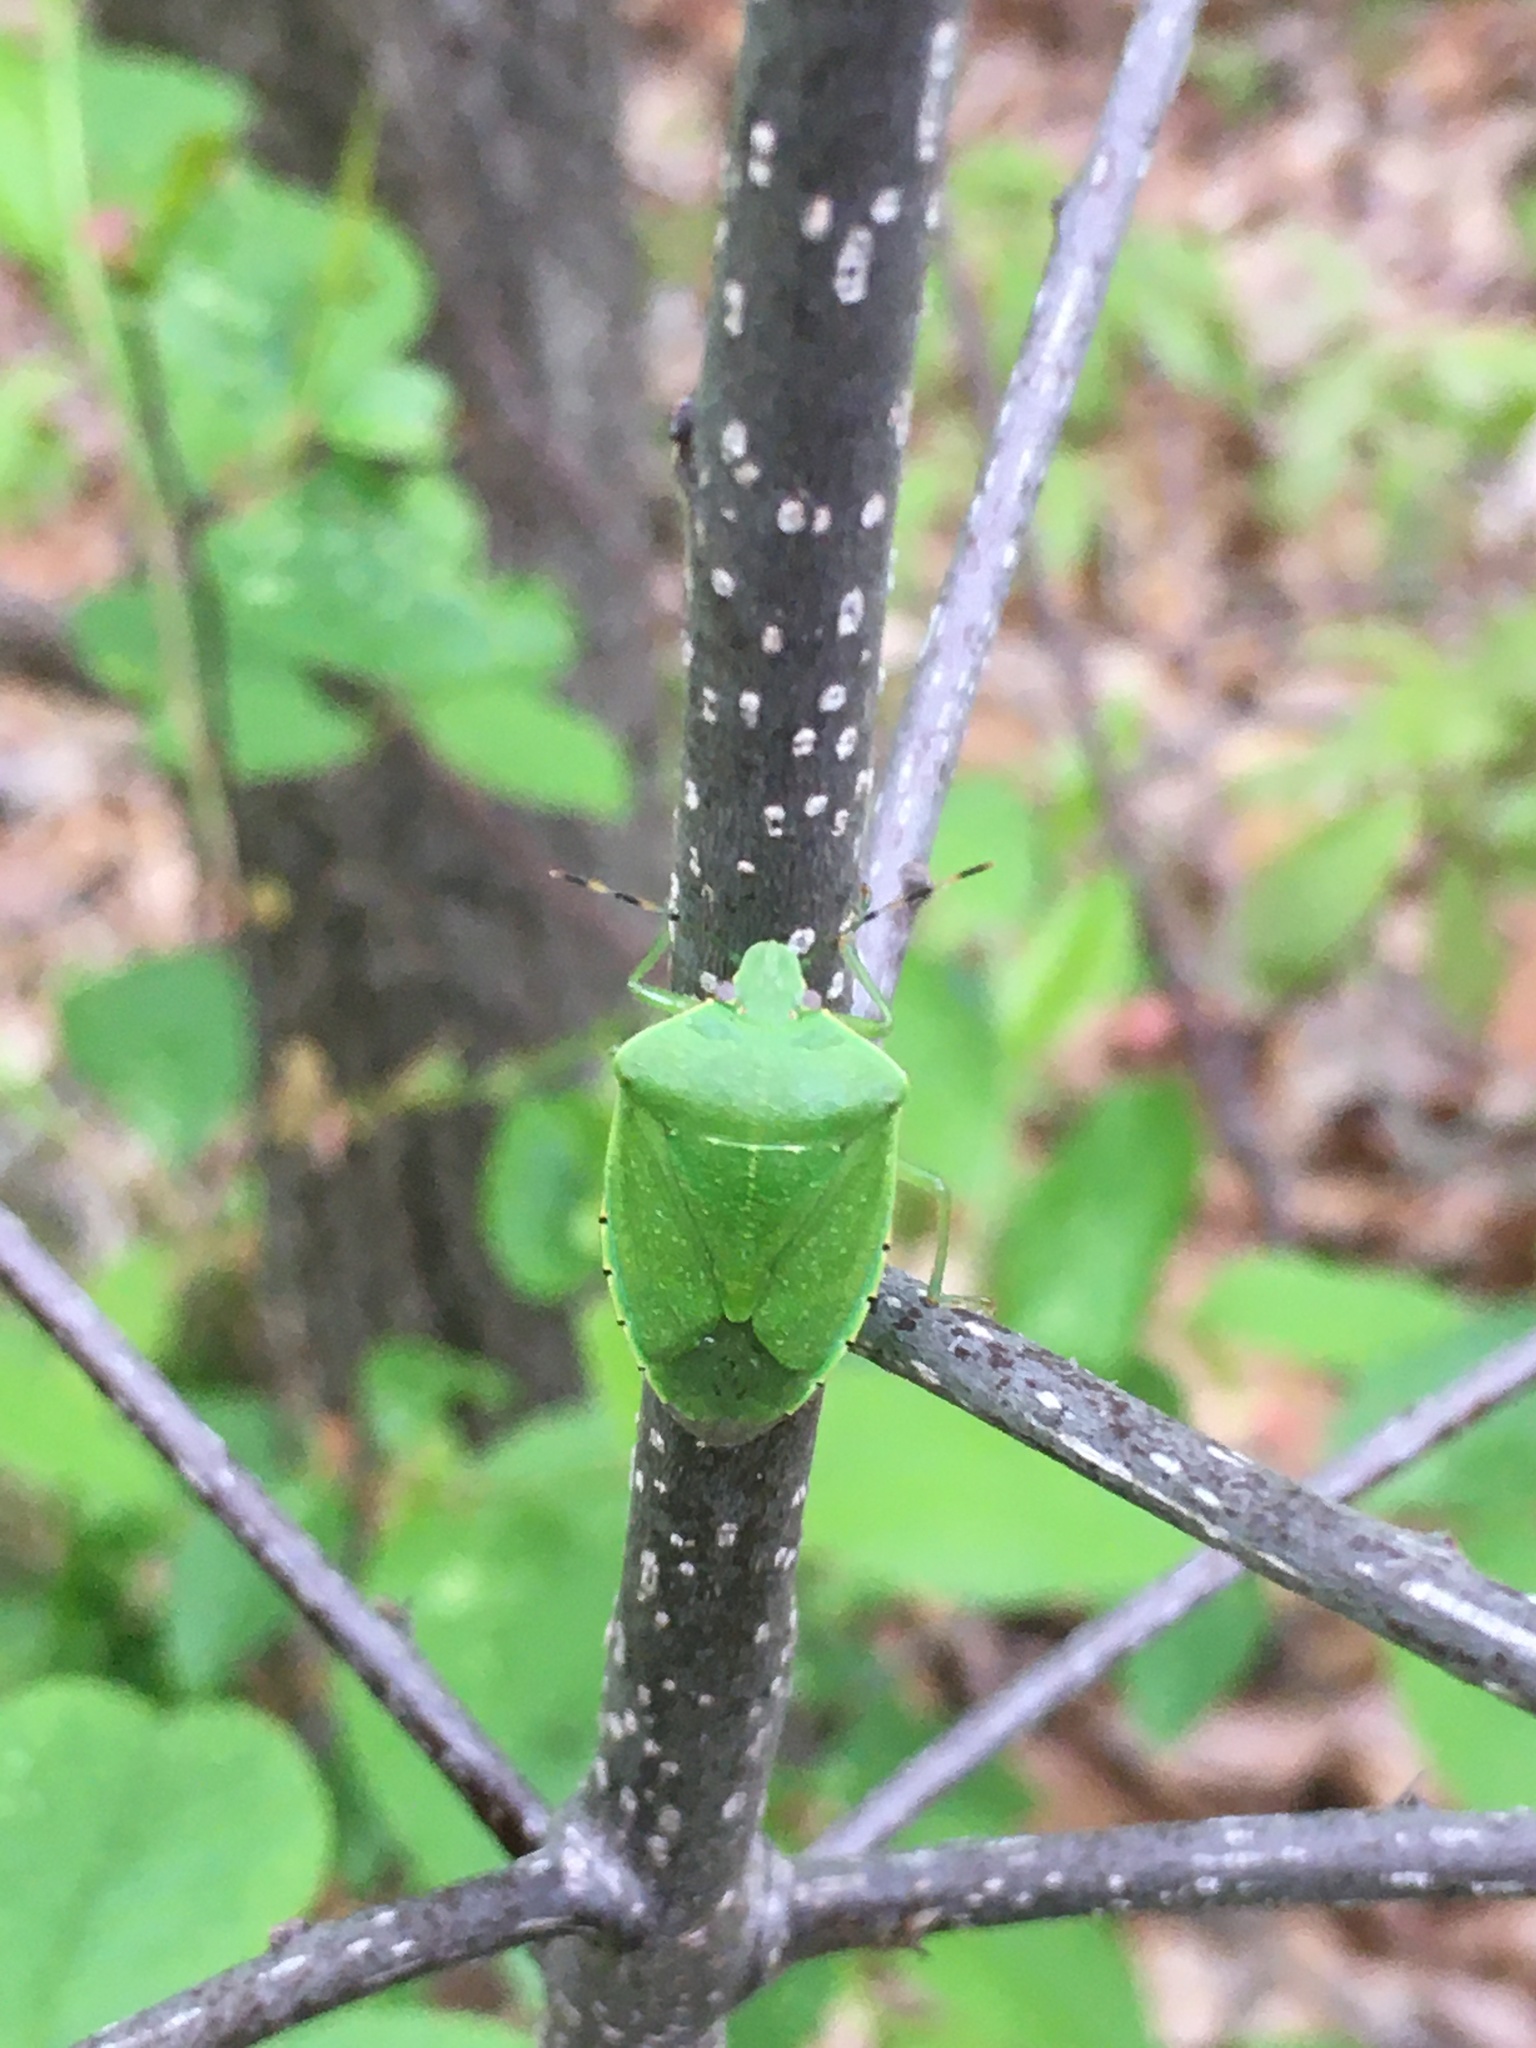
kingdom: Animalia
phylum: Arthropoda
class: Insecta
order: Hemiptera
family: Pentatomidae
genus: Chinavia
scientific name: Chinavia hilaris
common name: Green stink bug
